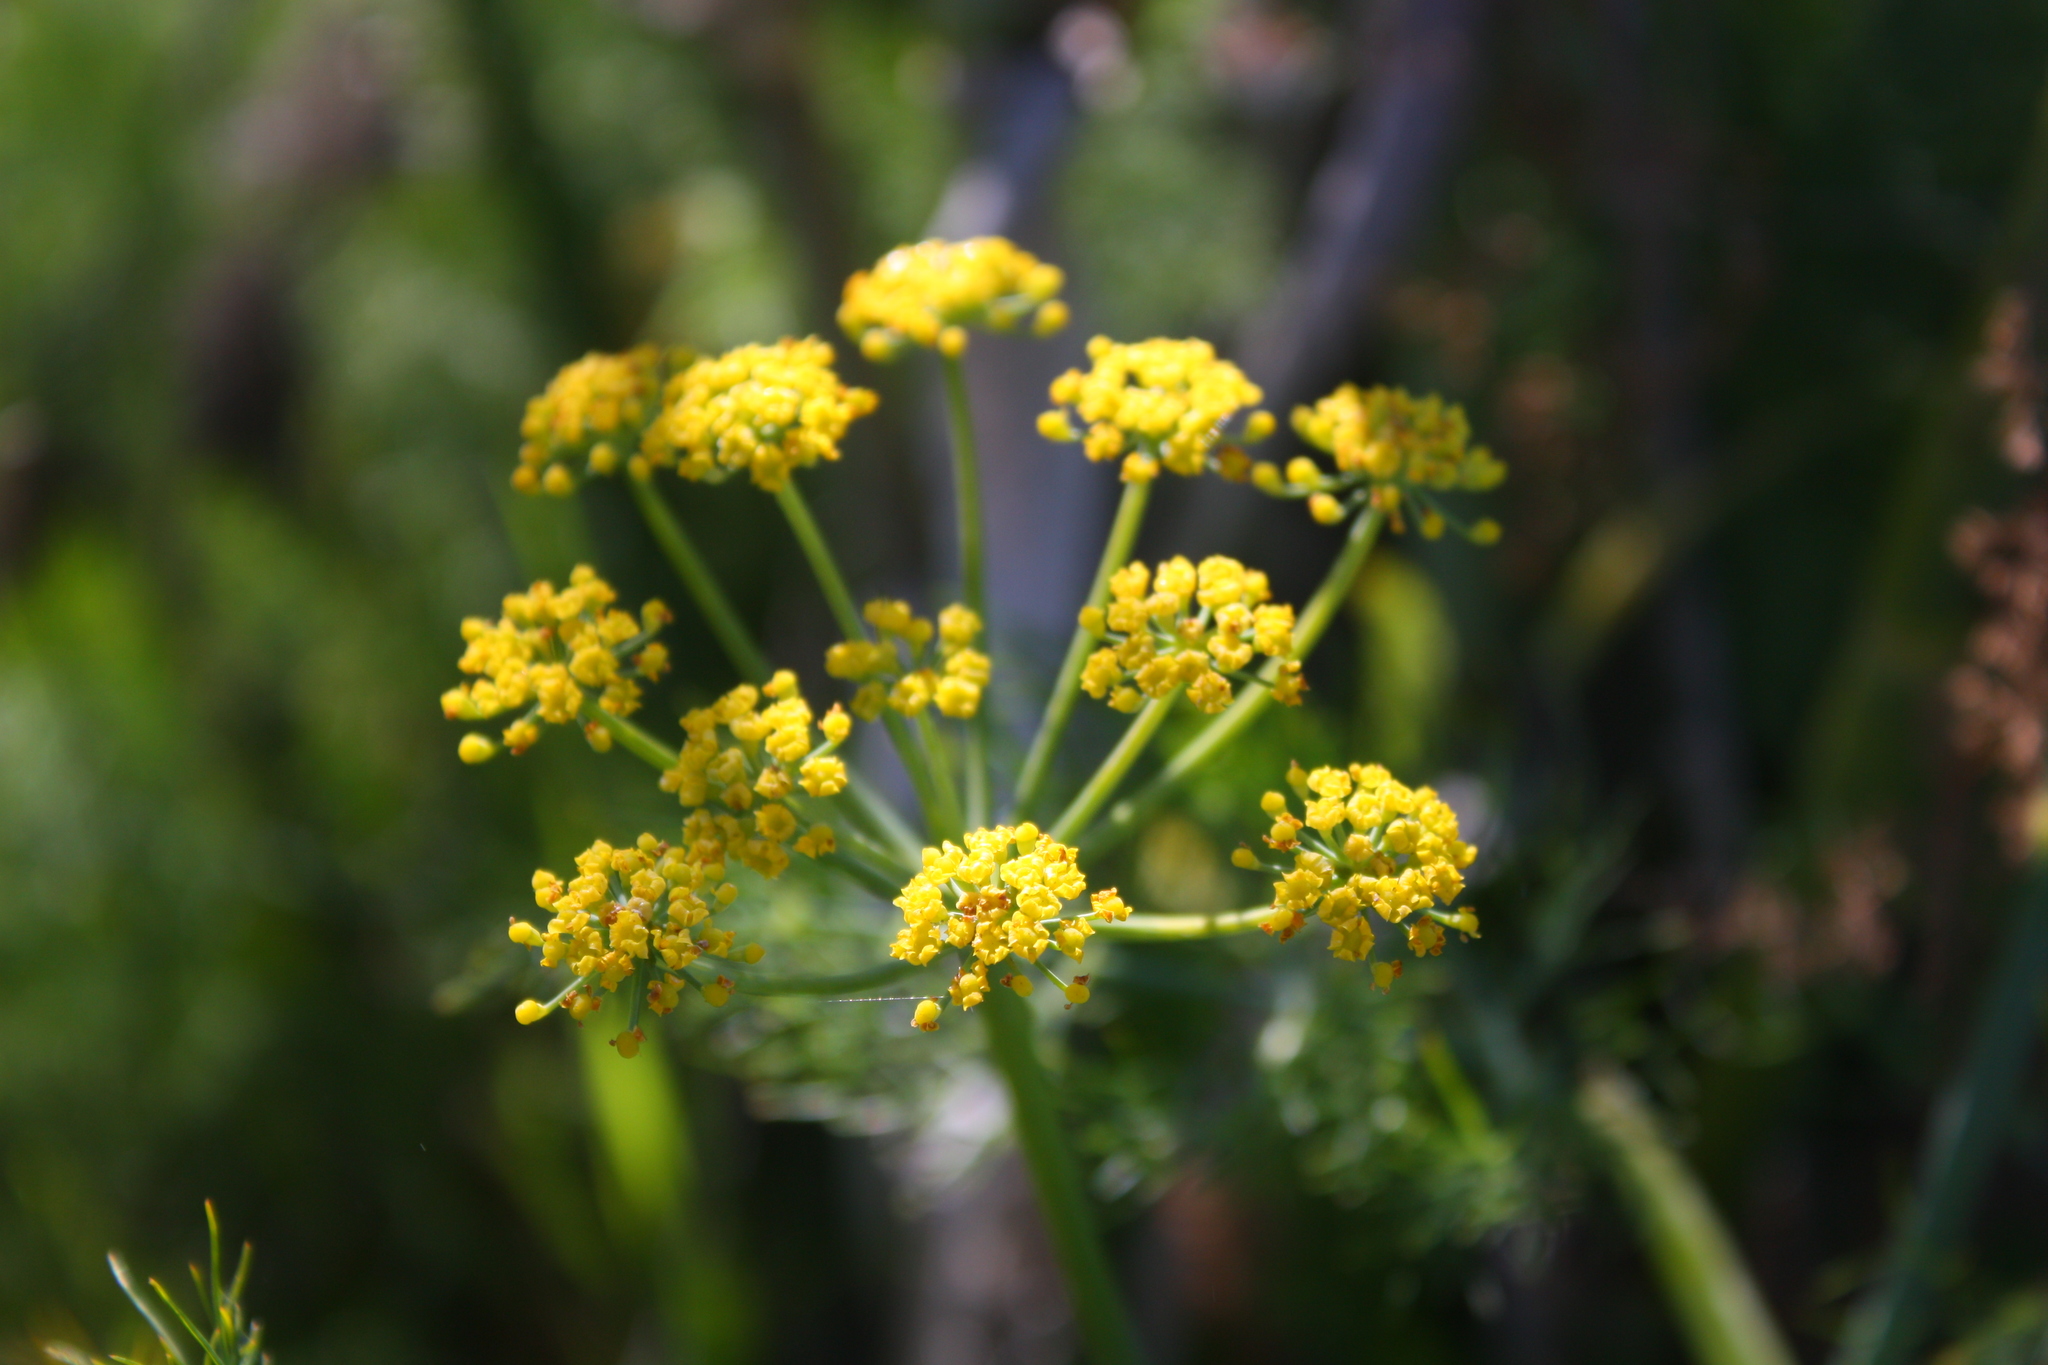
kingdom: Plantae
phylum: Tracheophyta
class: Magnoliopsida
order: Apiales
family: Apiaceae
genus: Foeniculum
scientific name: Foeniculum vulgare
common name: Fennel
